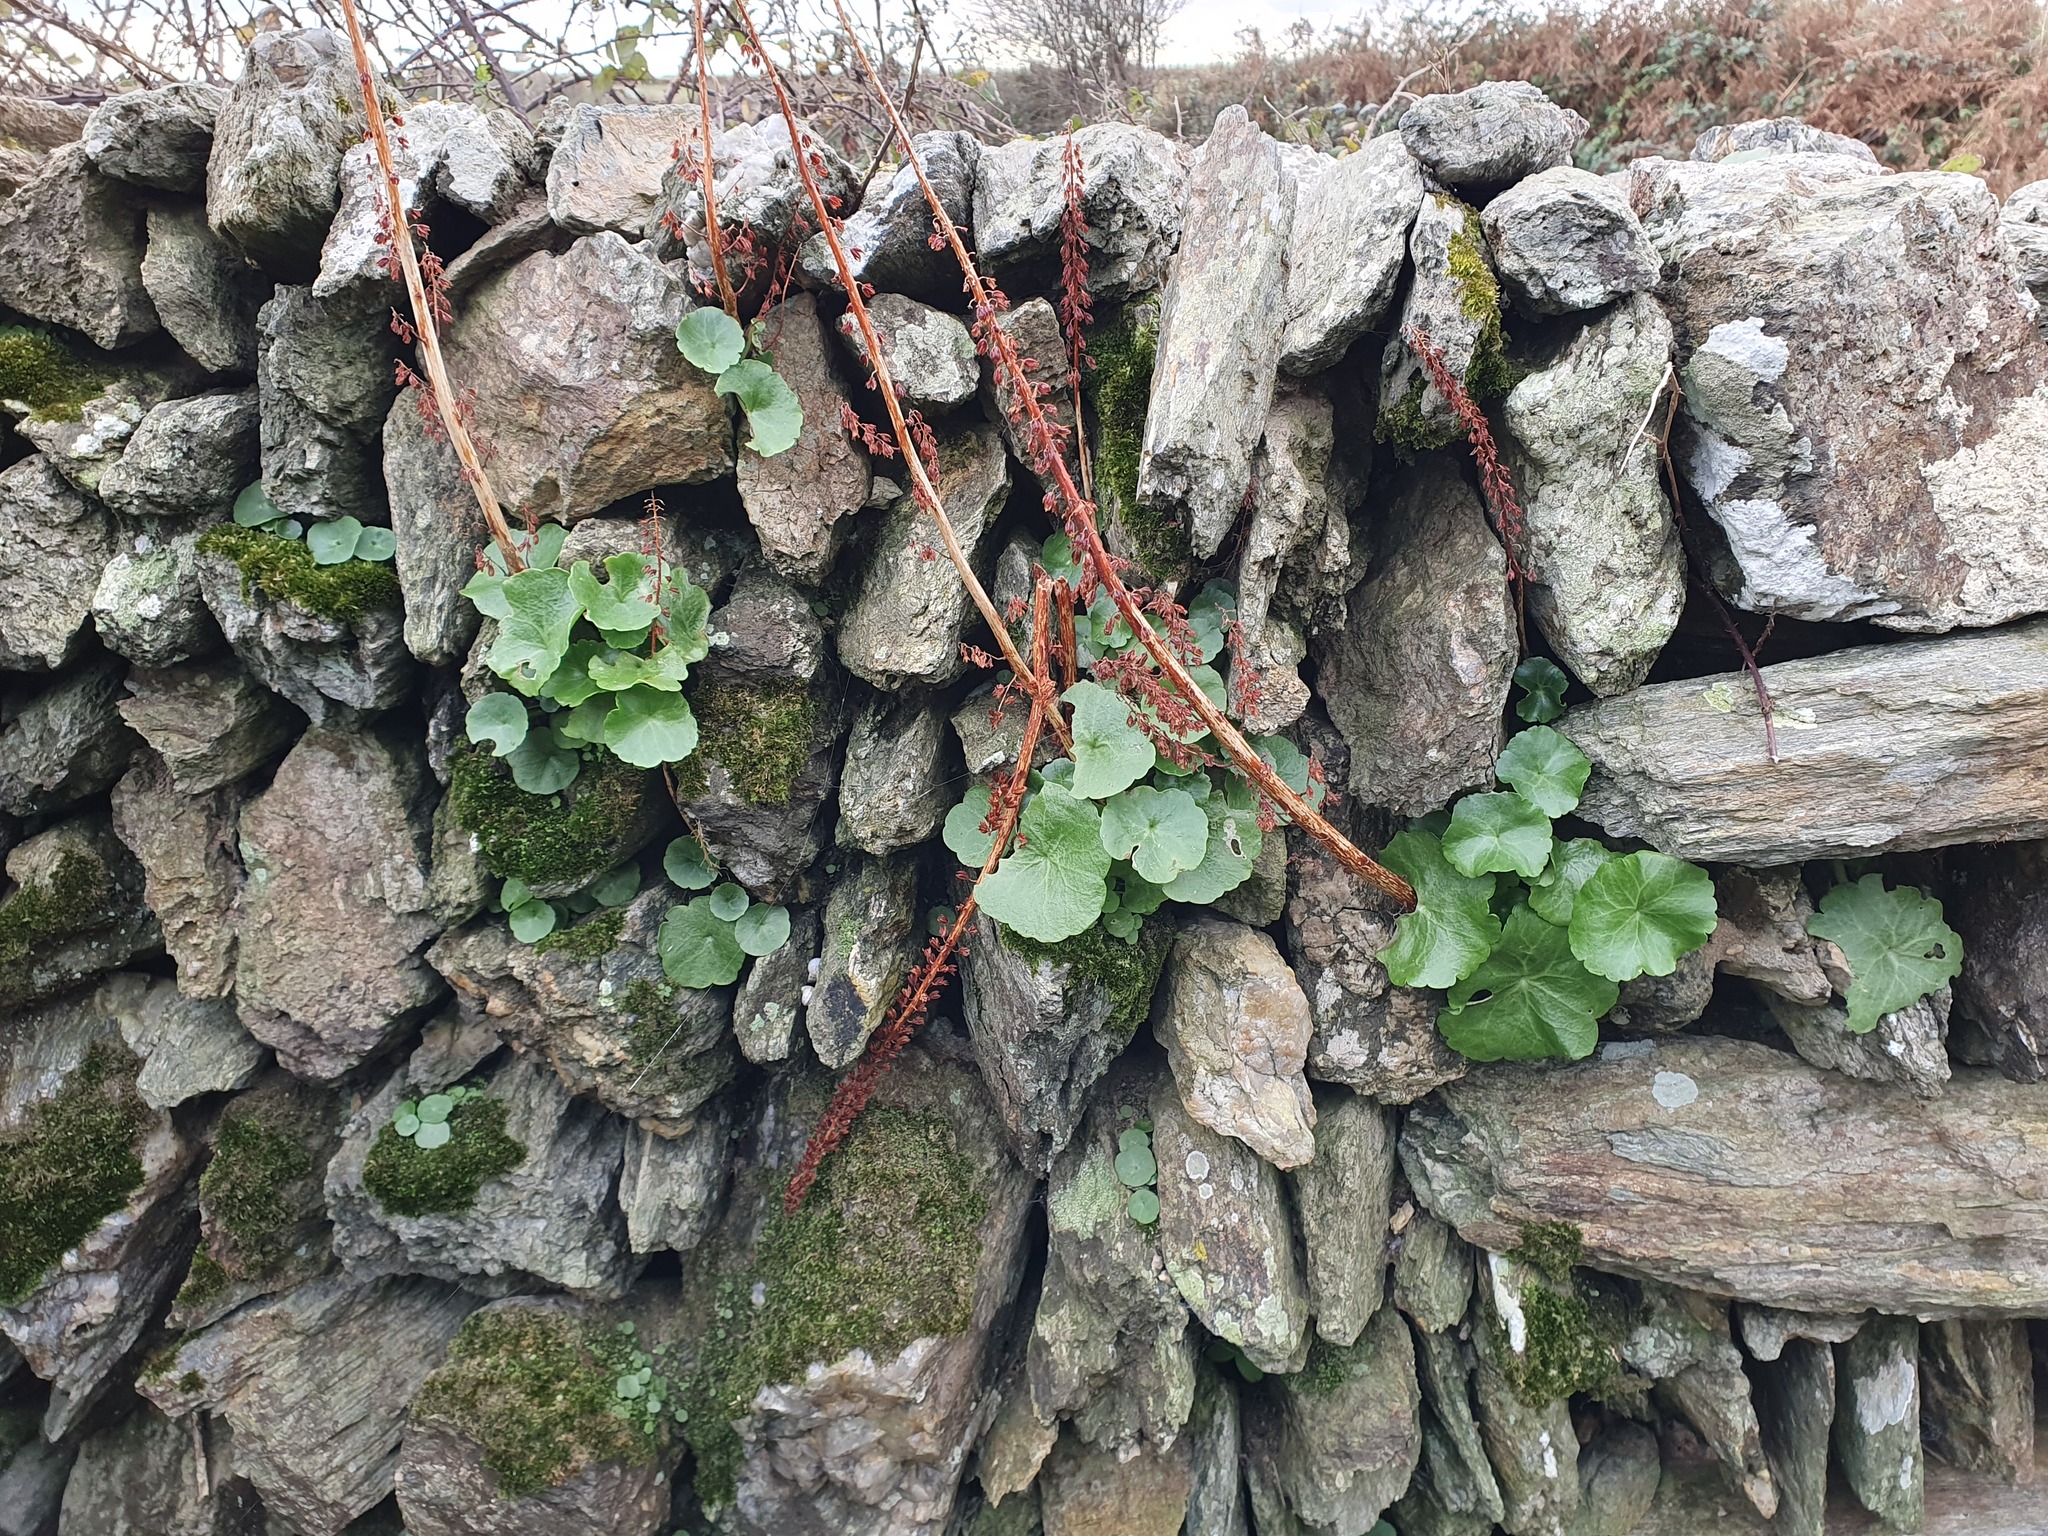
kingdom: Plantae
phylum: Tracheophyta
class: Magnoliopsida
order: Saxifragales
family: Crassulaceae
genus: Umbilicus
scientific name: Umbilicus rupestris
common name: Navelwort
